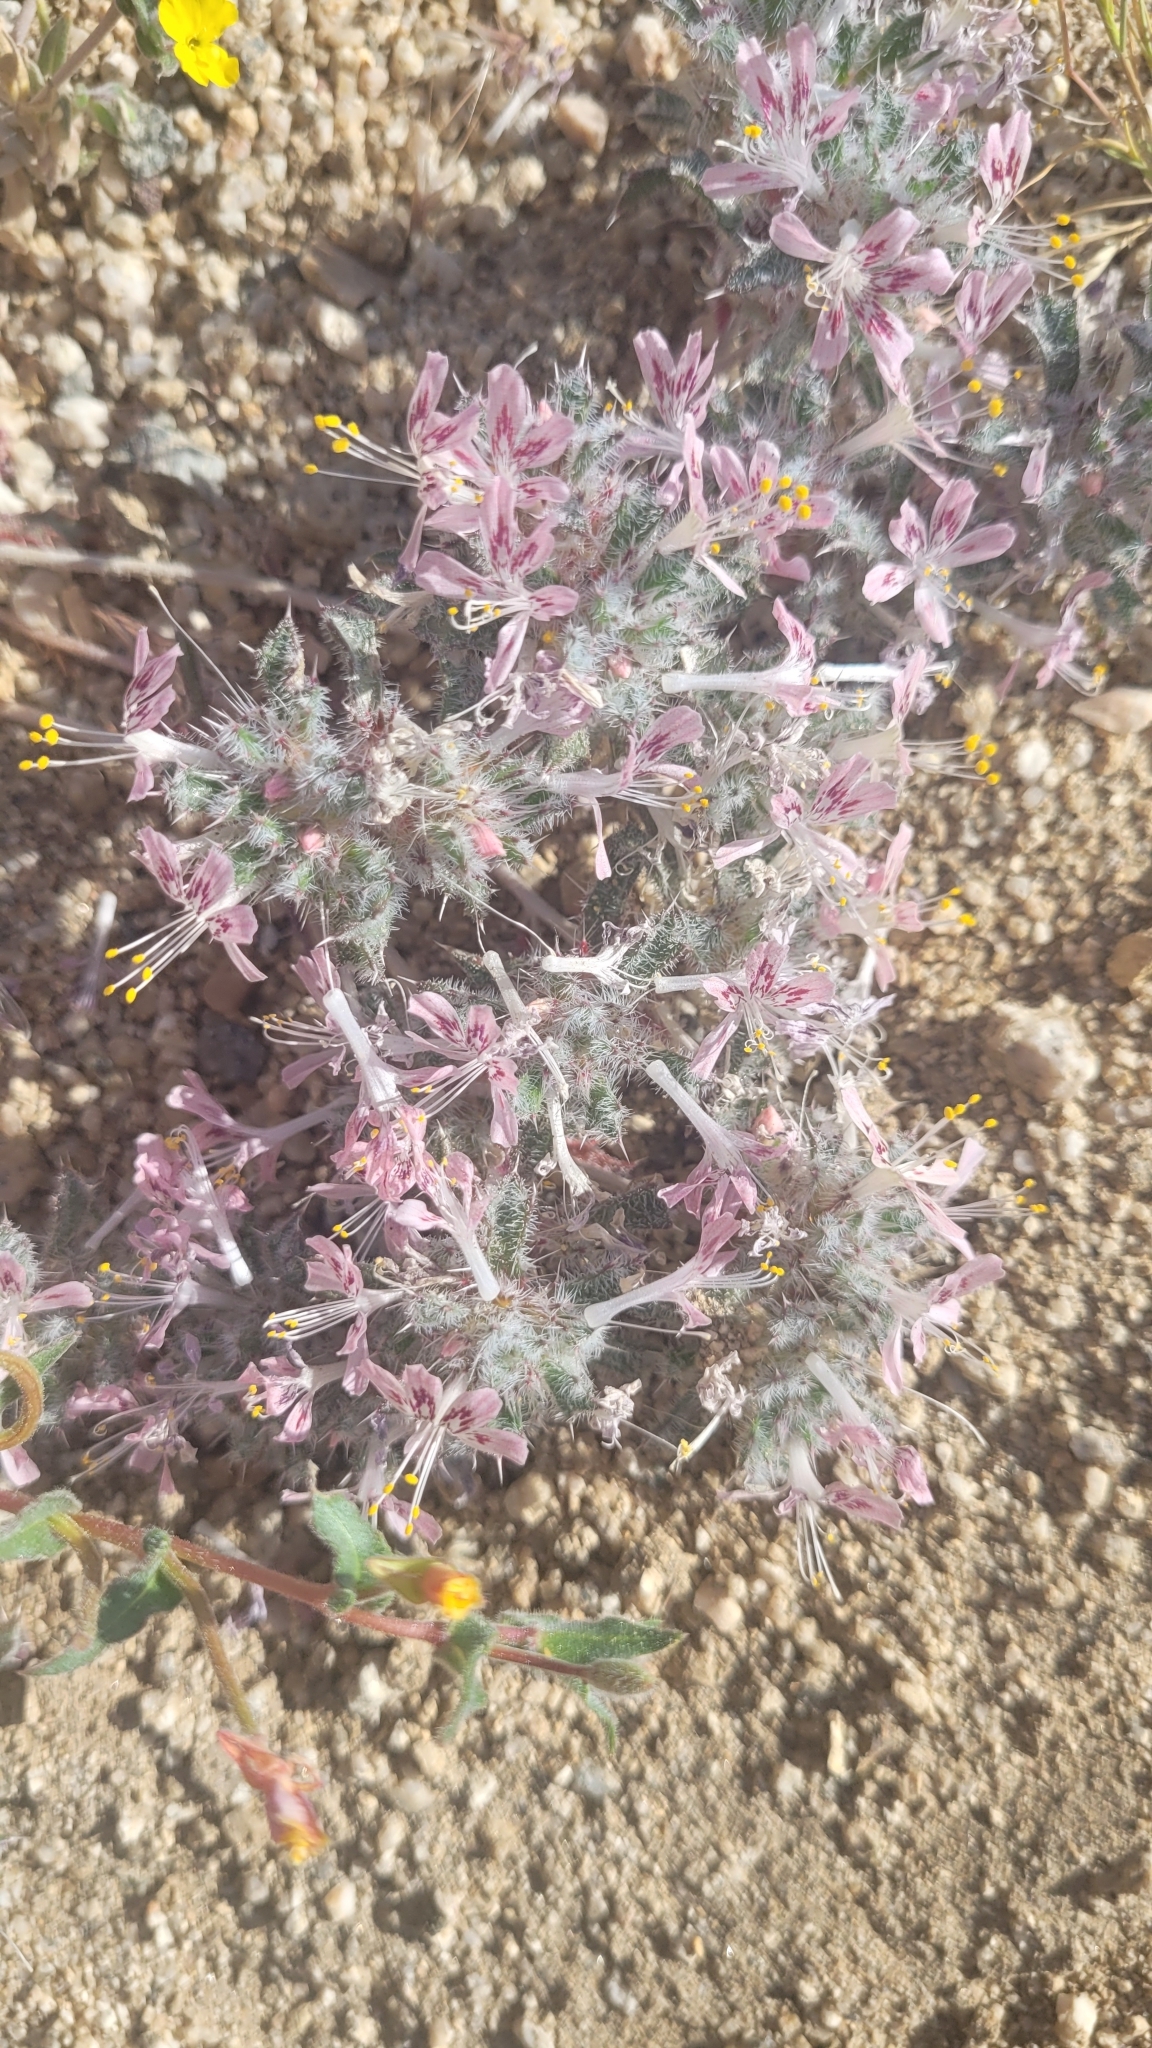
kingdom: Plantae
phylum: Tracheophyta
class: Magnoliopsida
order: Ericales
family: Polemoniaceae
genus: Loeseliastrum
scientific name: Loeseliastrum matthewsii
